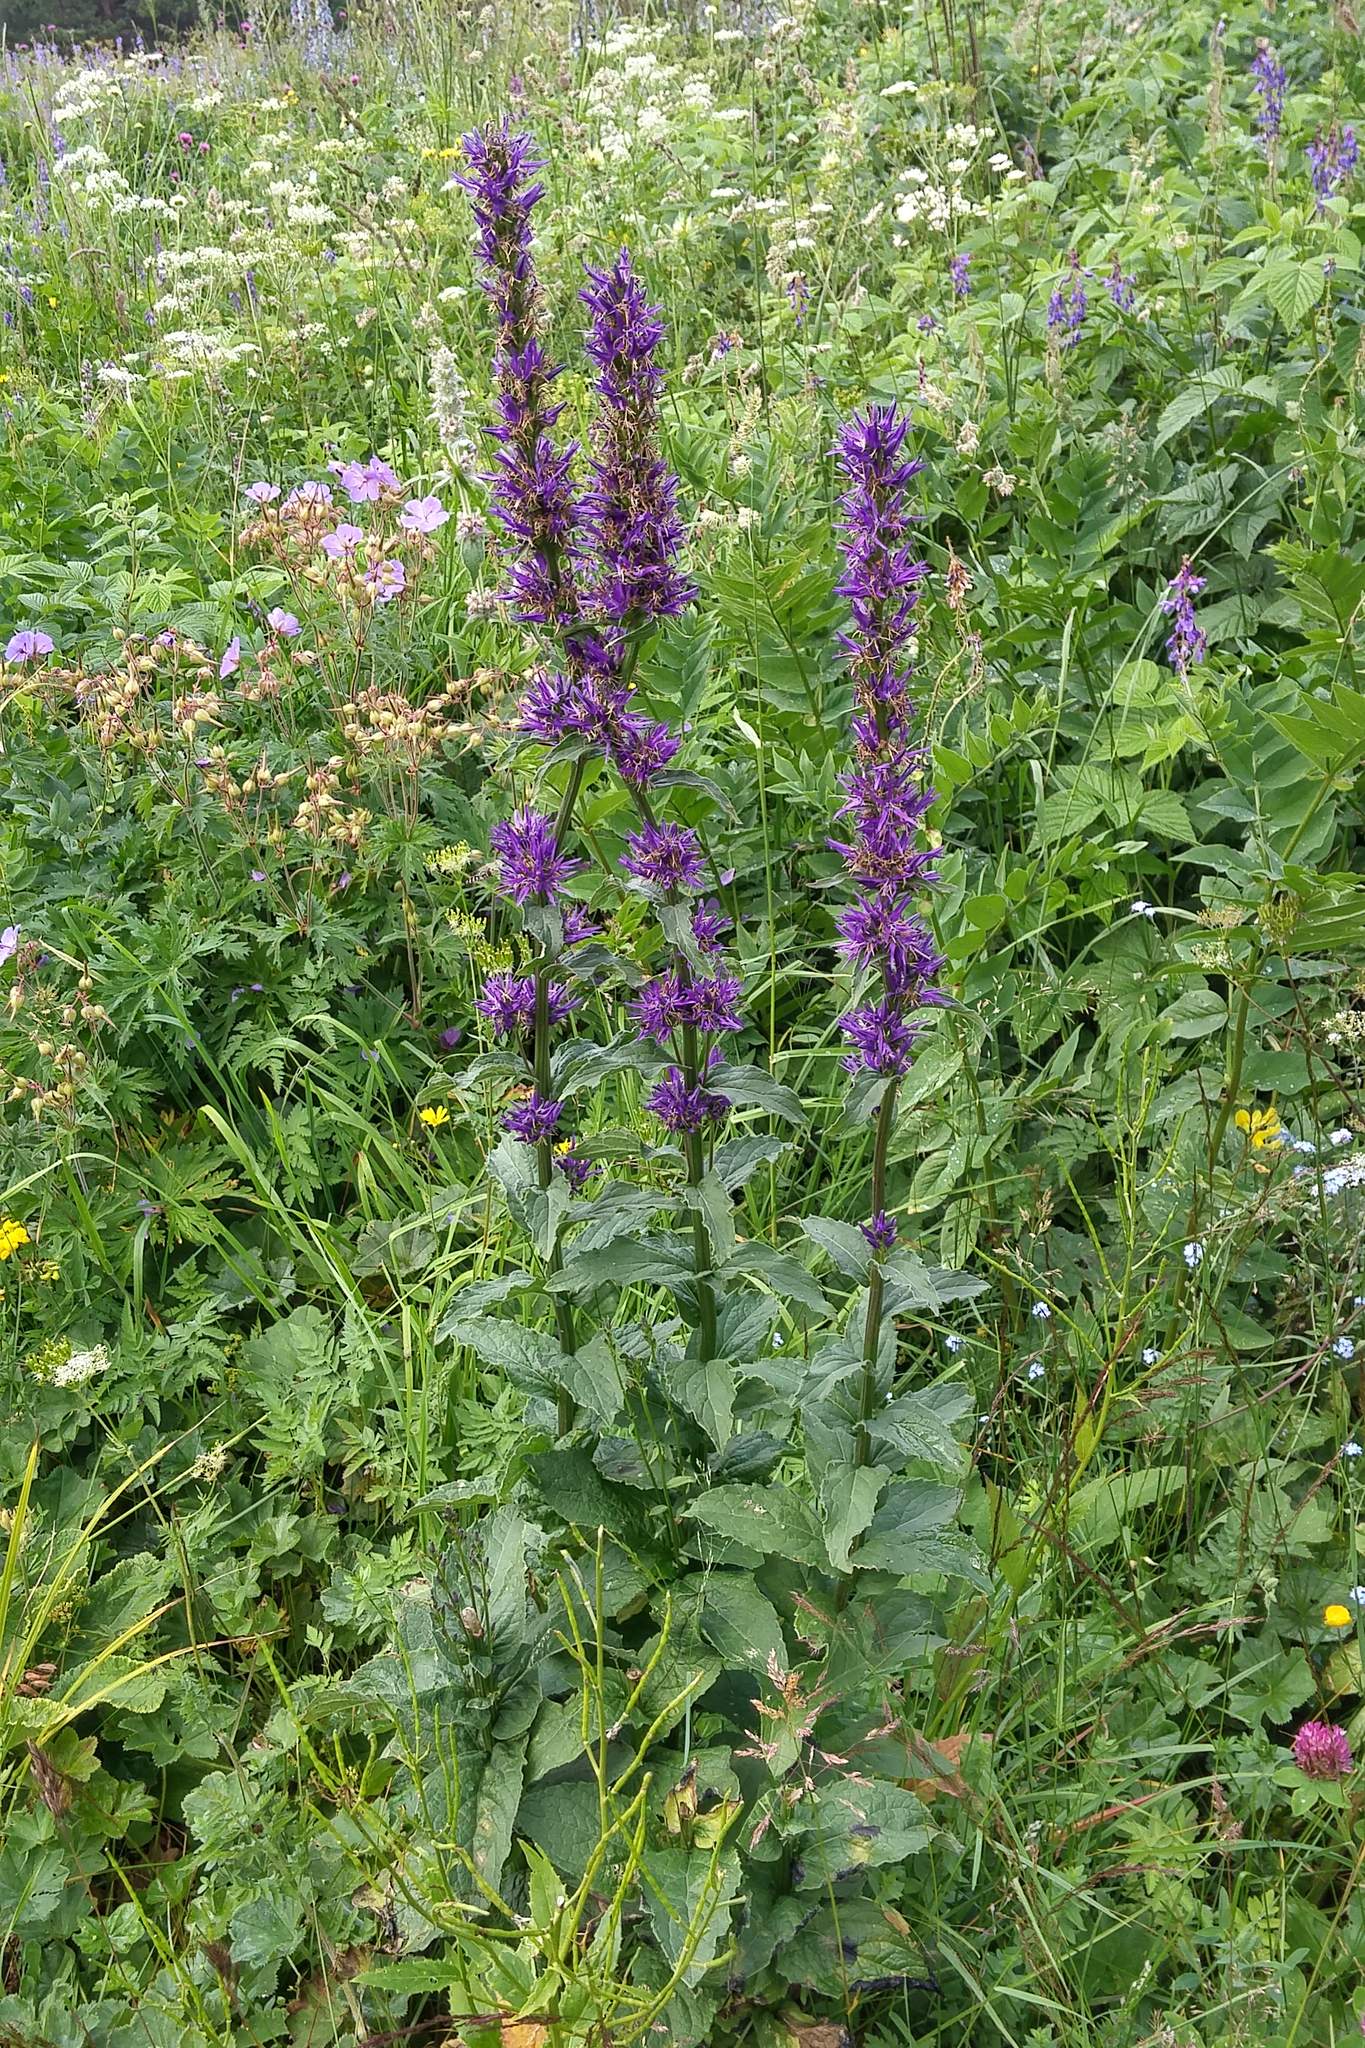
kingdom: Plantae
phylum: Tracheophyta
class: Magnoliopsida
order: Asterales
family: Campanulaceae
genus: Asyneuma
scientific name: Asyneuma campanuloides
